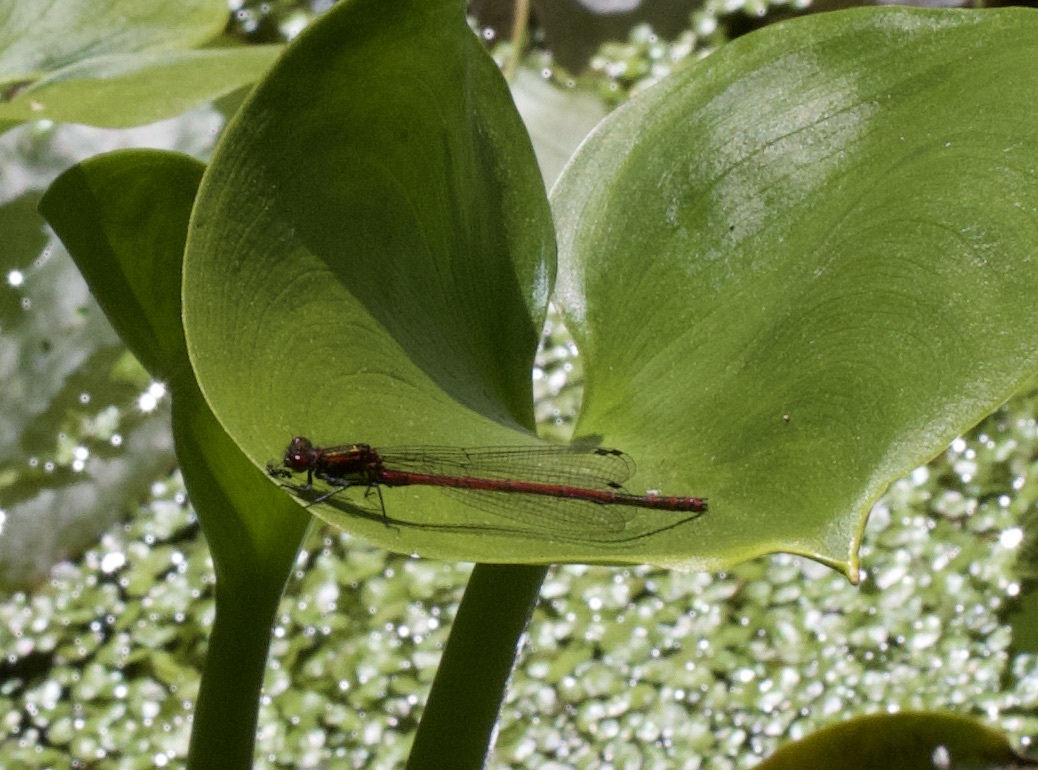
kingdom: Animalia
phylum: Arthropoda
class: Insecta
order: Odonata
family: Coenagrionidae
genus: Pyrrhosoma
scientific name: Pyrrhosoma nymphula
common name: Large red damsel
